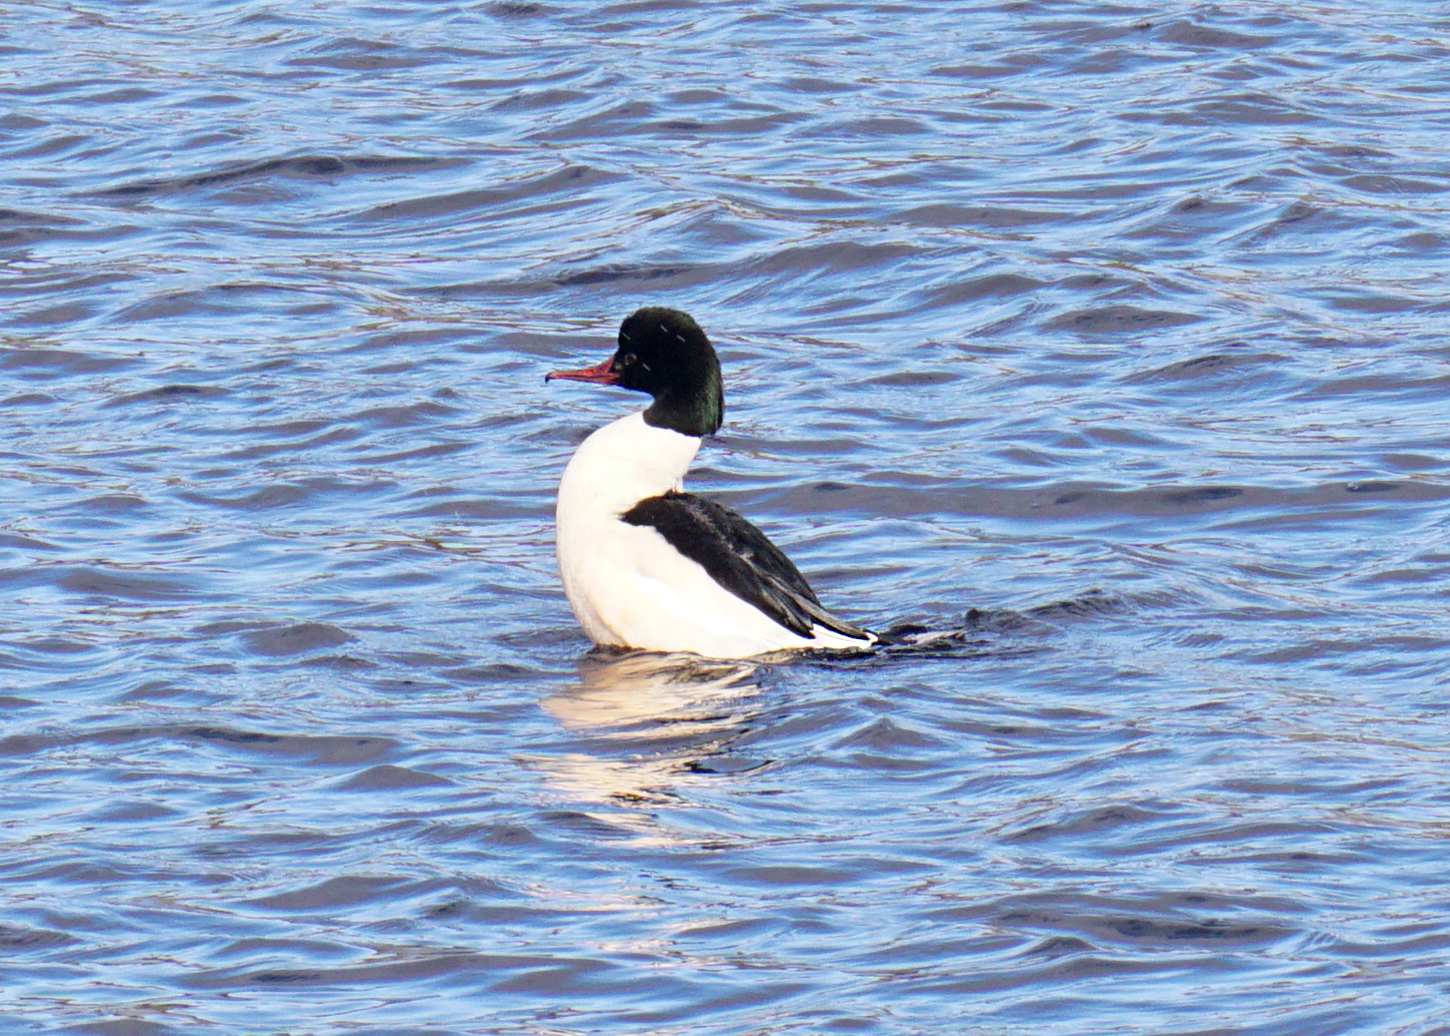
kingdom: Animalia
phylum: Chordata
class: Aves
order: Anseriformes
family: Anatidae
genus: Mergus
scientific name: Mergus merganser
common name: Common merganser
